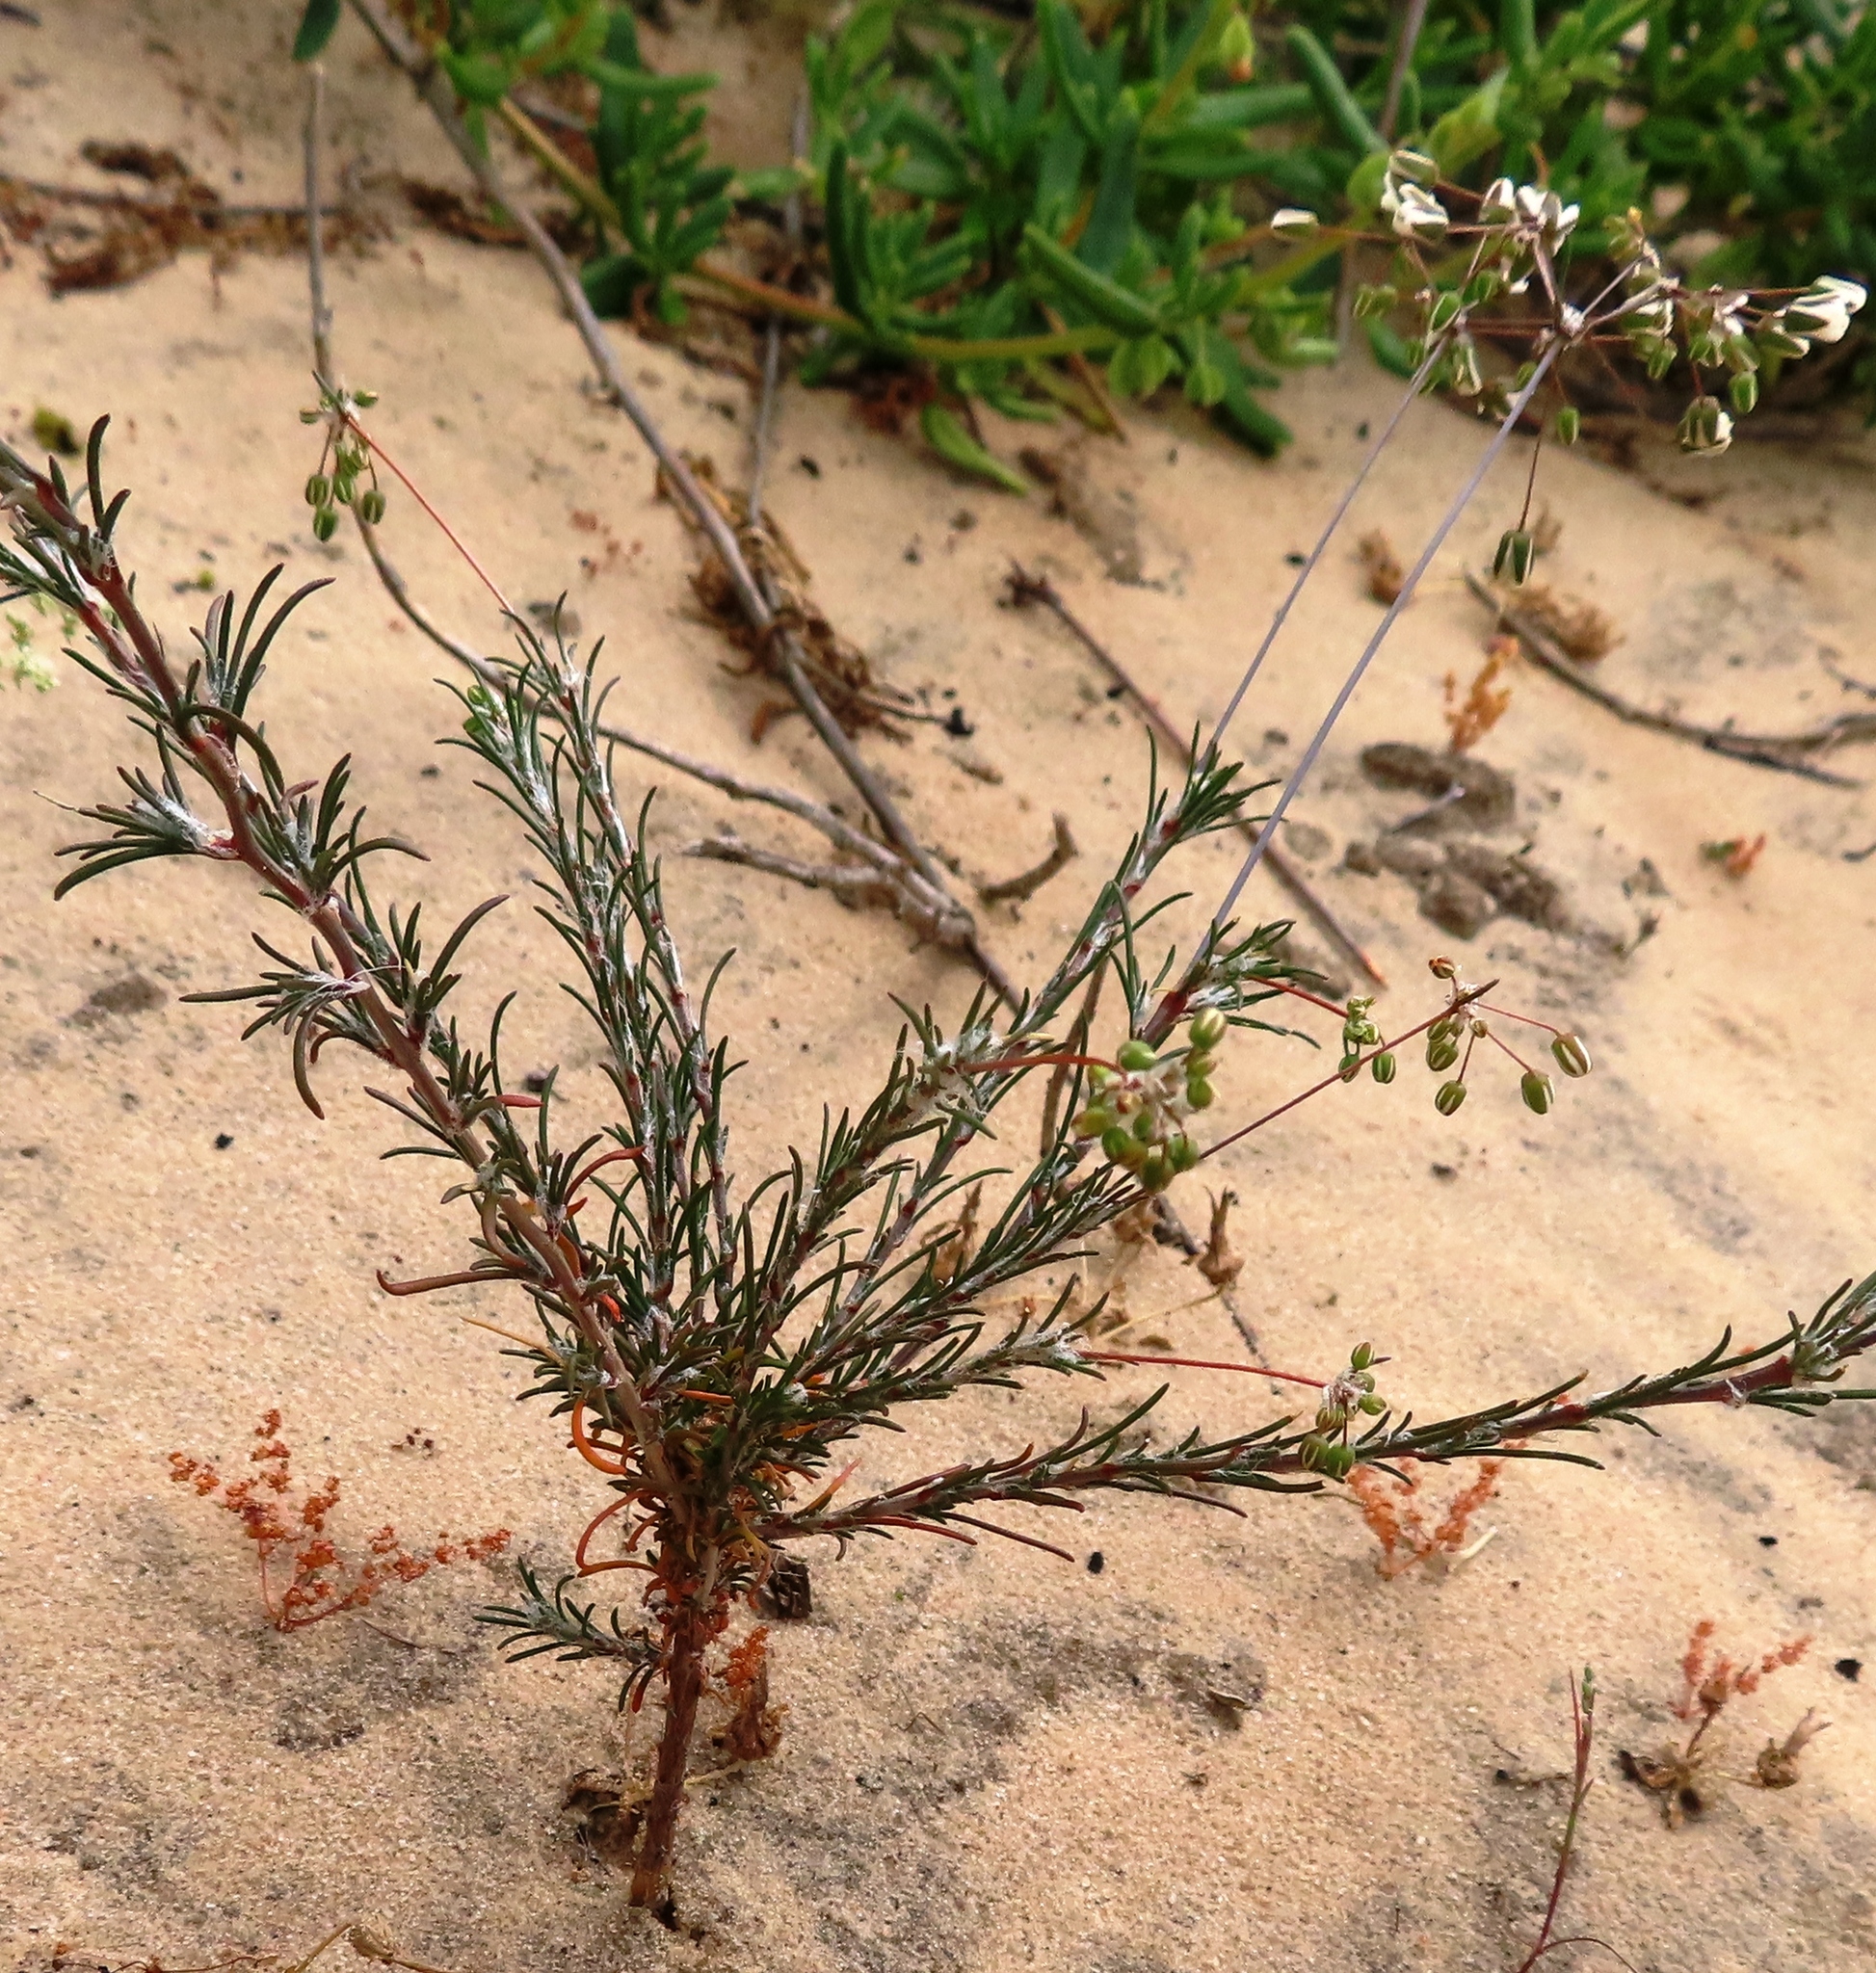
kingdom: Plantae
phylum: Tracheophyta
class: Magnoliopsida
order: Caryophyllales
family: Molluginaceae
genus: Pharnaceum
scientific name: Pharnaceum lanatum
